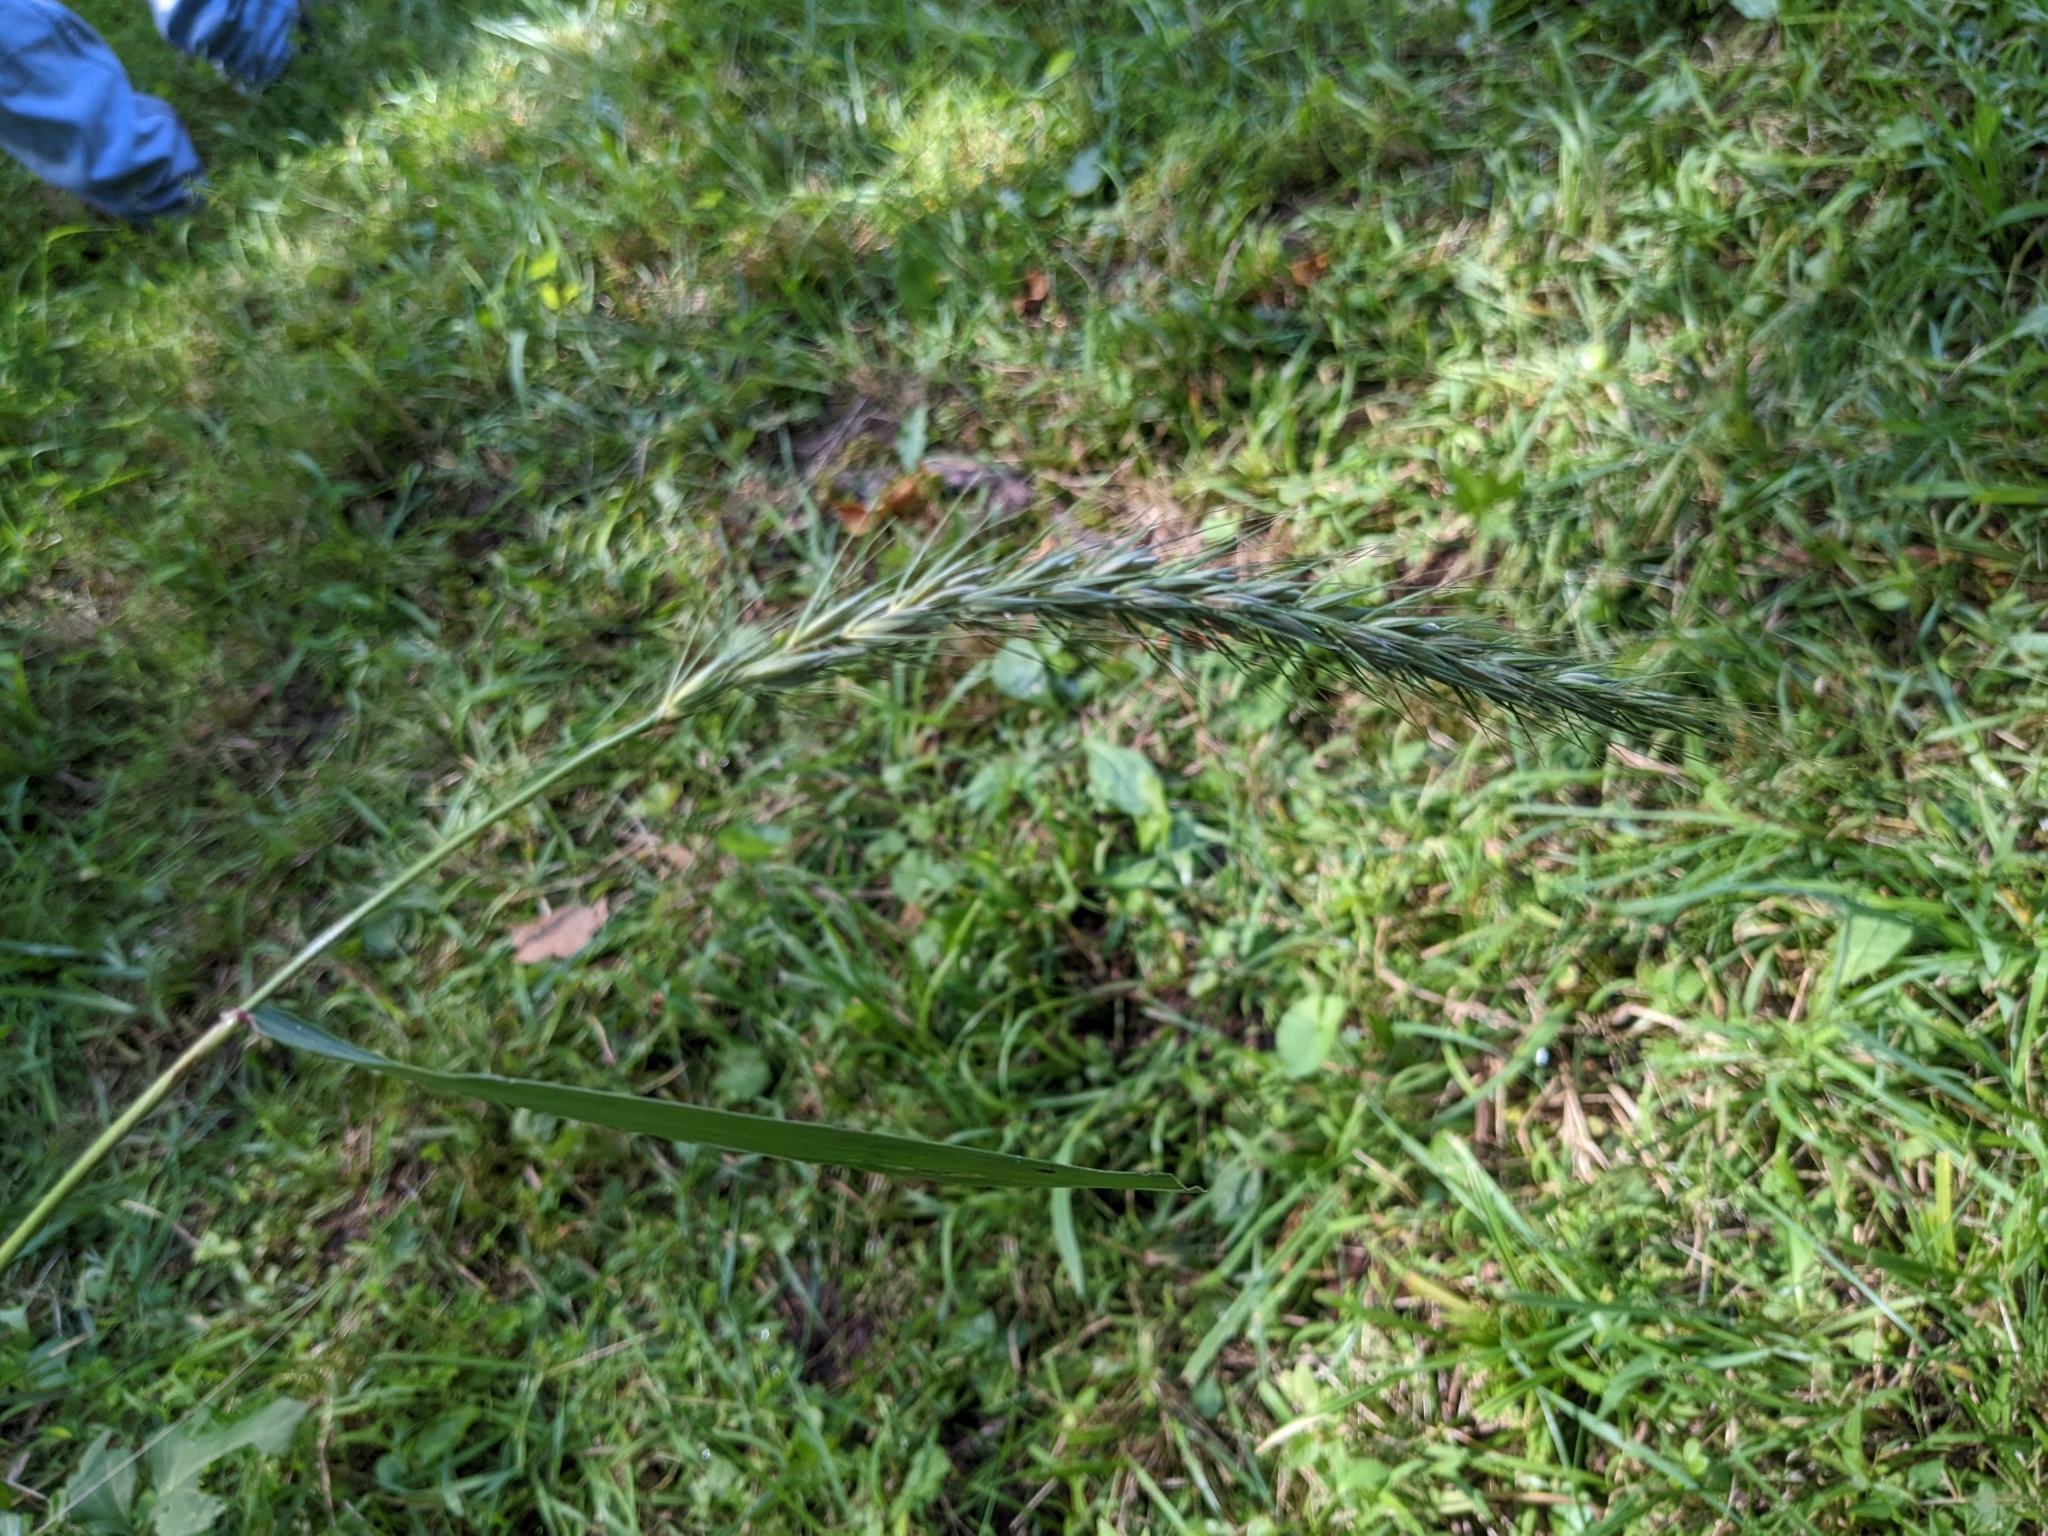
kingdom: Plantae
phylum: Tracheophyta
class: Liliopsida
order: Poales
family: Poaceae
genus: Elymus
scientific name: Elymus riparius
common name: Eastern riverbank wild rye
